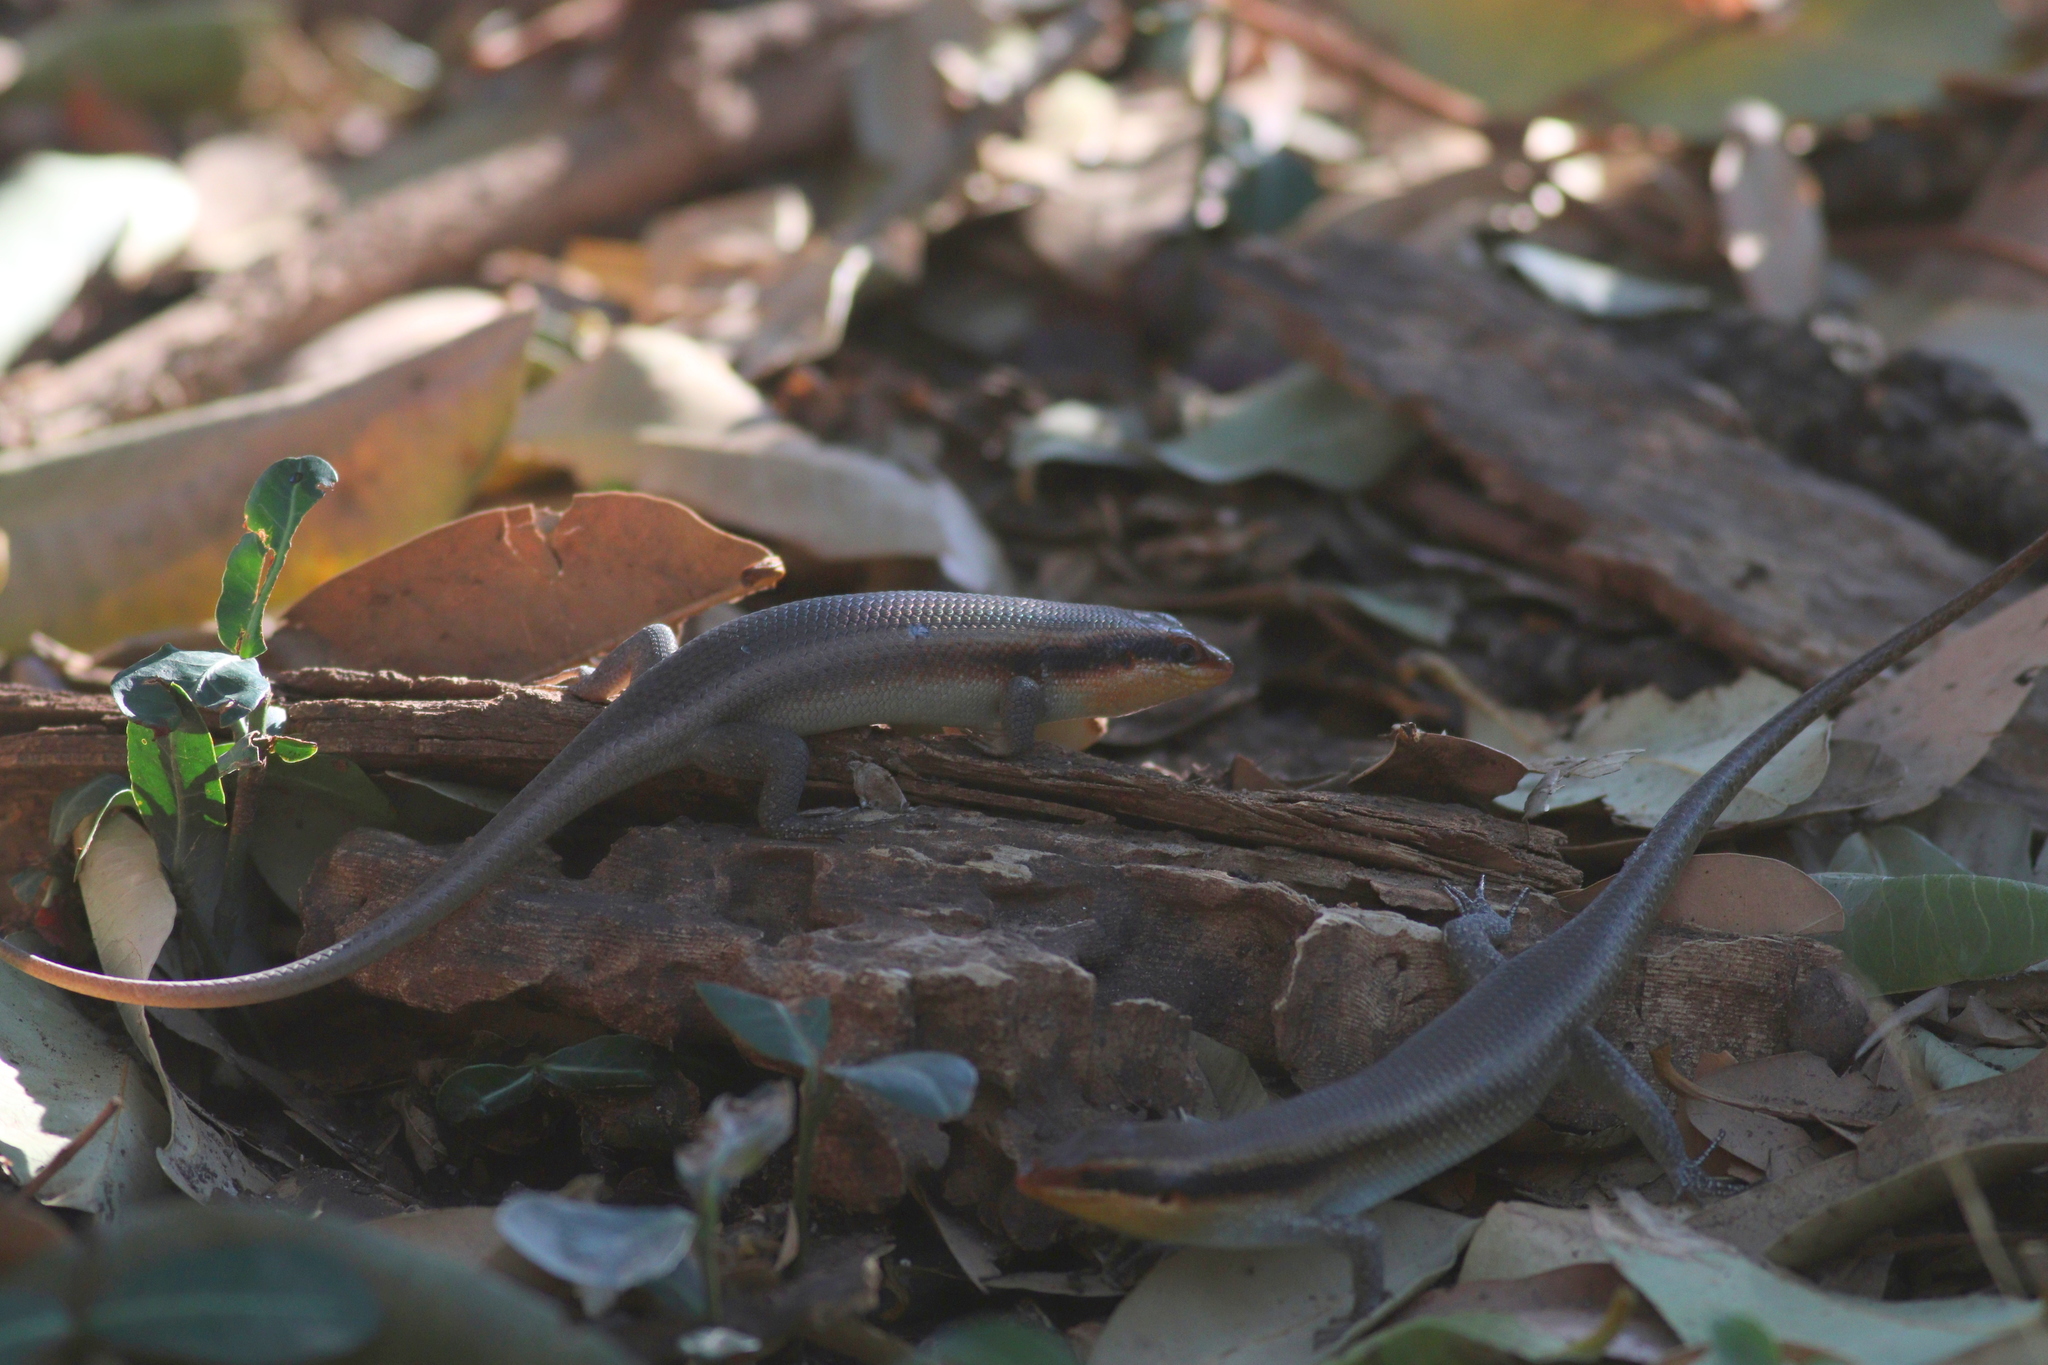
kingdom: Animalia
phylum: Chordata
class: Squamata
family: Scincidae
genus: Trachylepis
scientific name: Trachylepis wahlbergii
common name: Wahlberg’s striped skink
